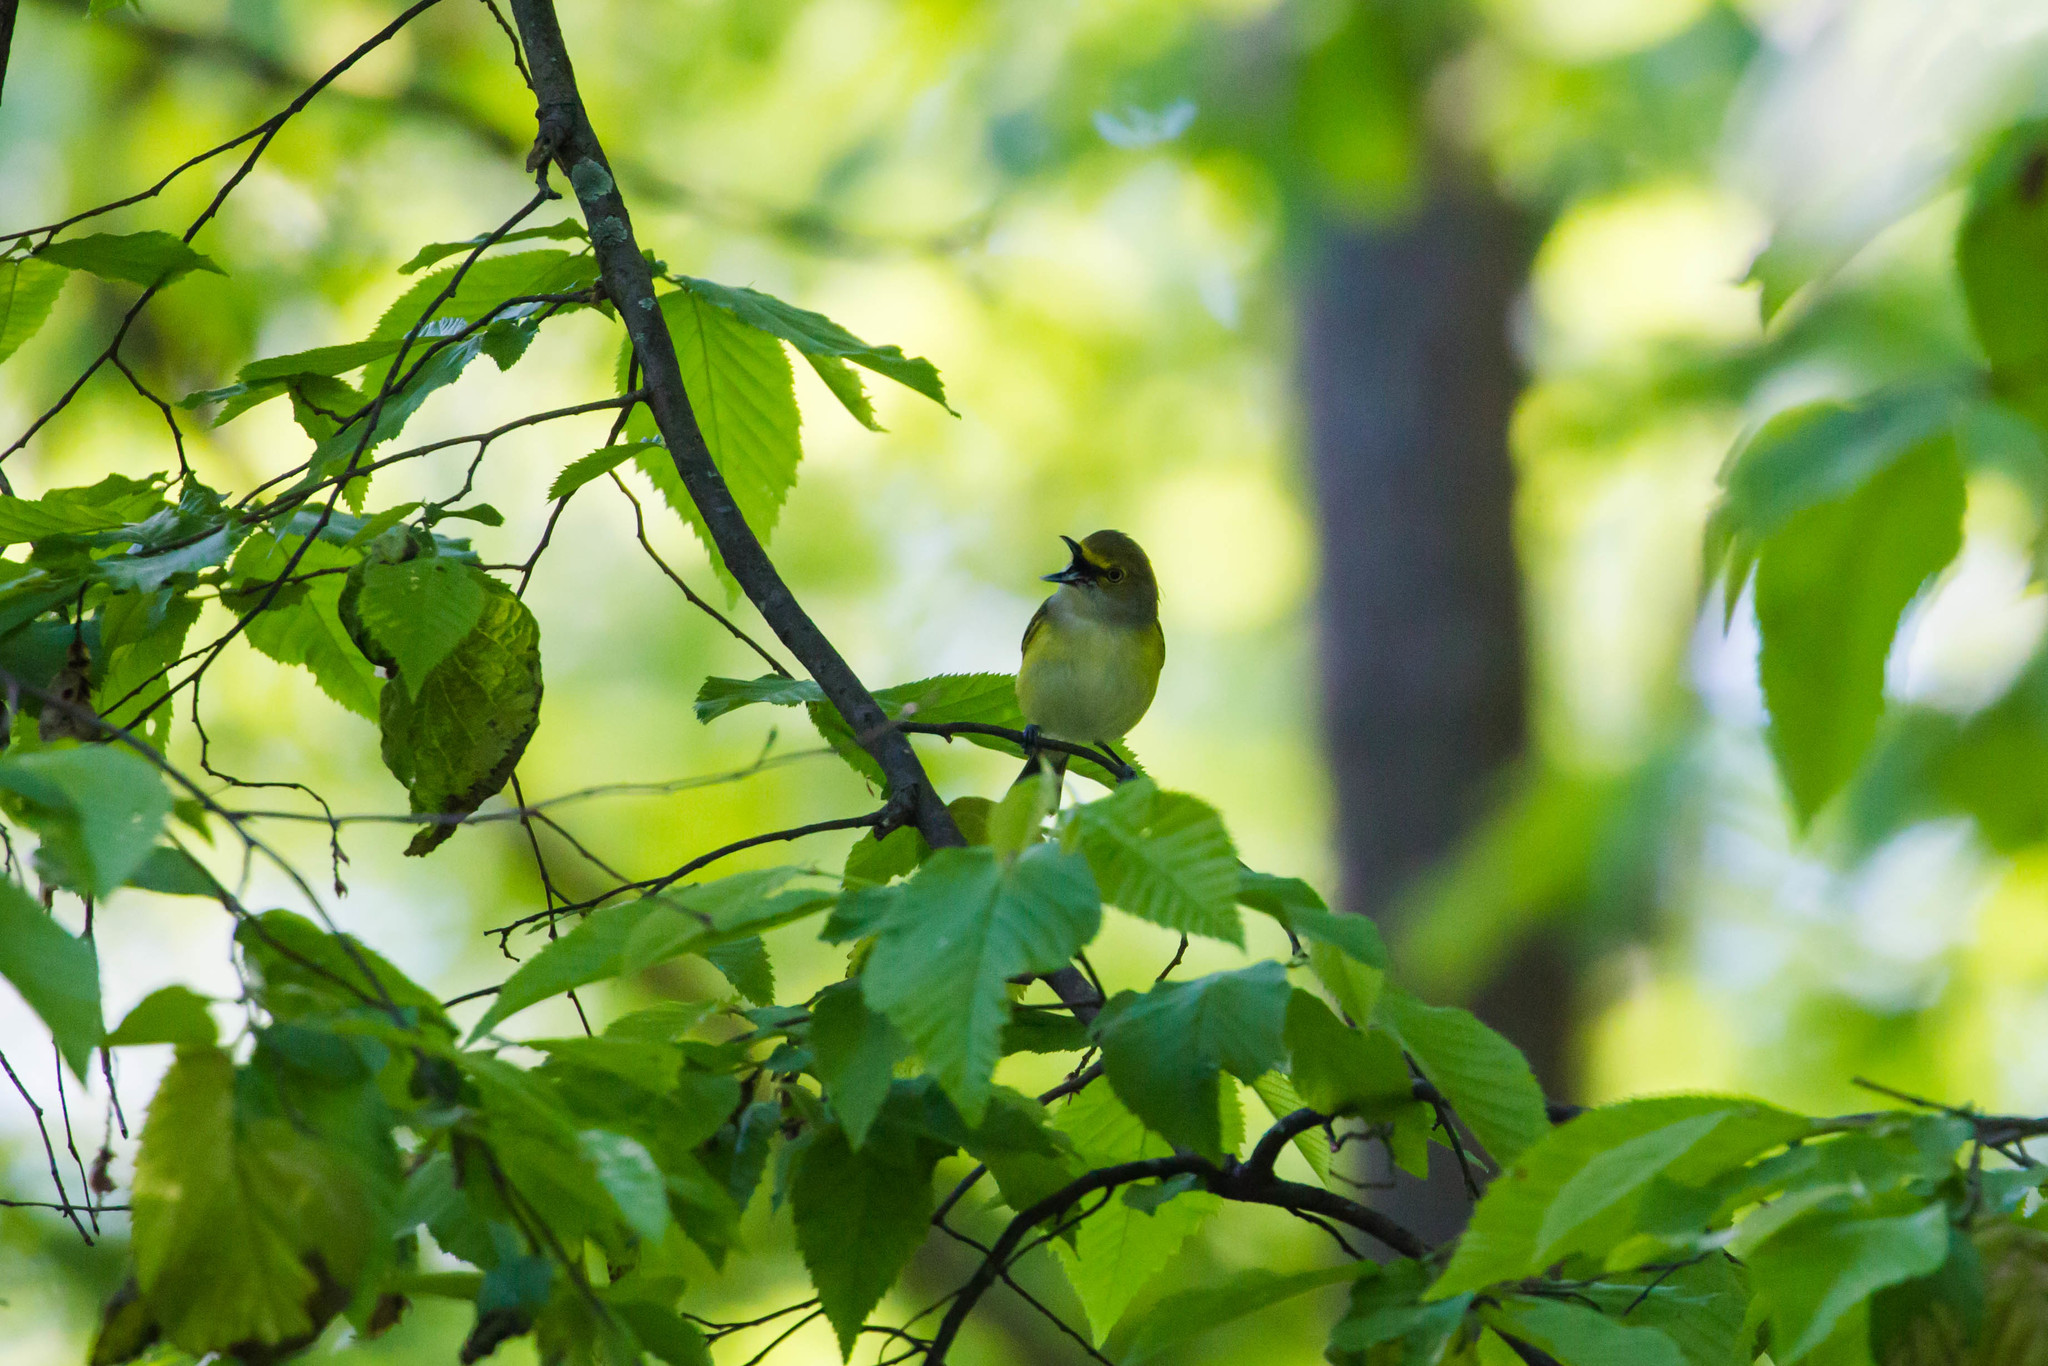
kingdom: Animalia
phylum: Chordata
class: Aves
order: Passeriformes
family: Vireonidae
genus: Vireo
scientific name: Vireo griseus
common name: White-eyed vireo
